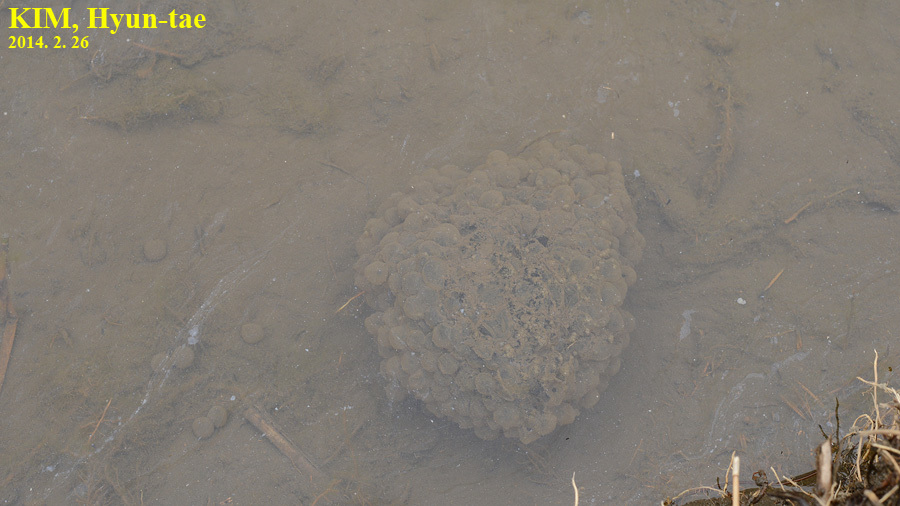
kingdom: Animalia
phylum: Chordata
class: Amphibia
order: Anura
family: Ranidae
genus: Rana
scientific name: Rana uenoi
